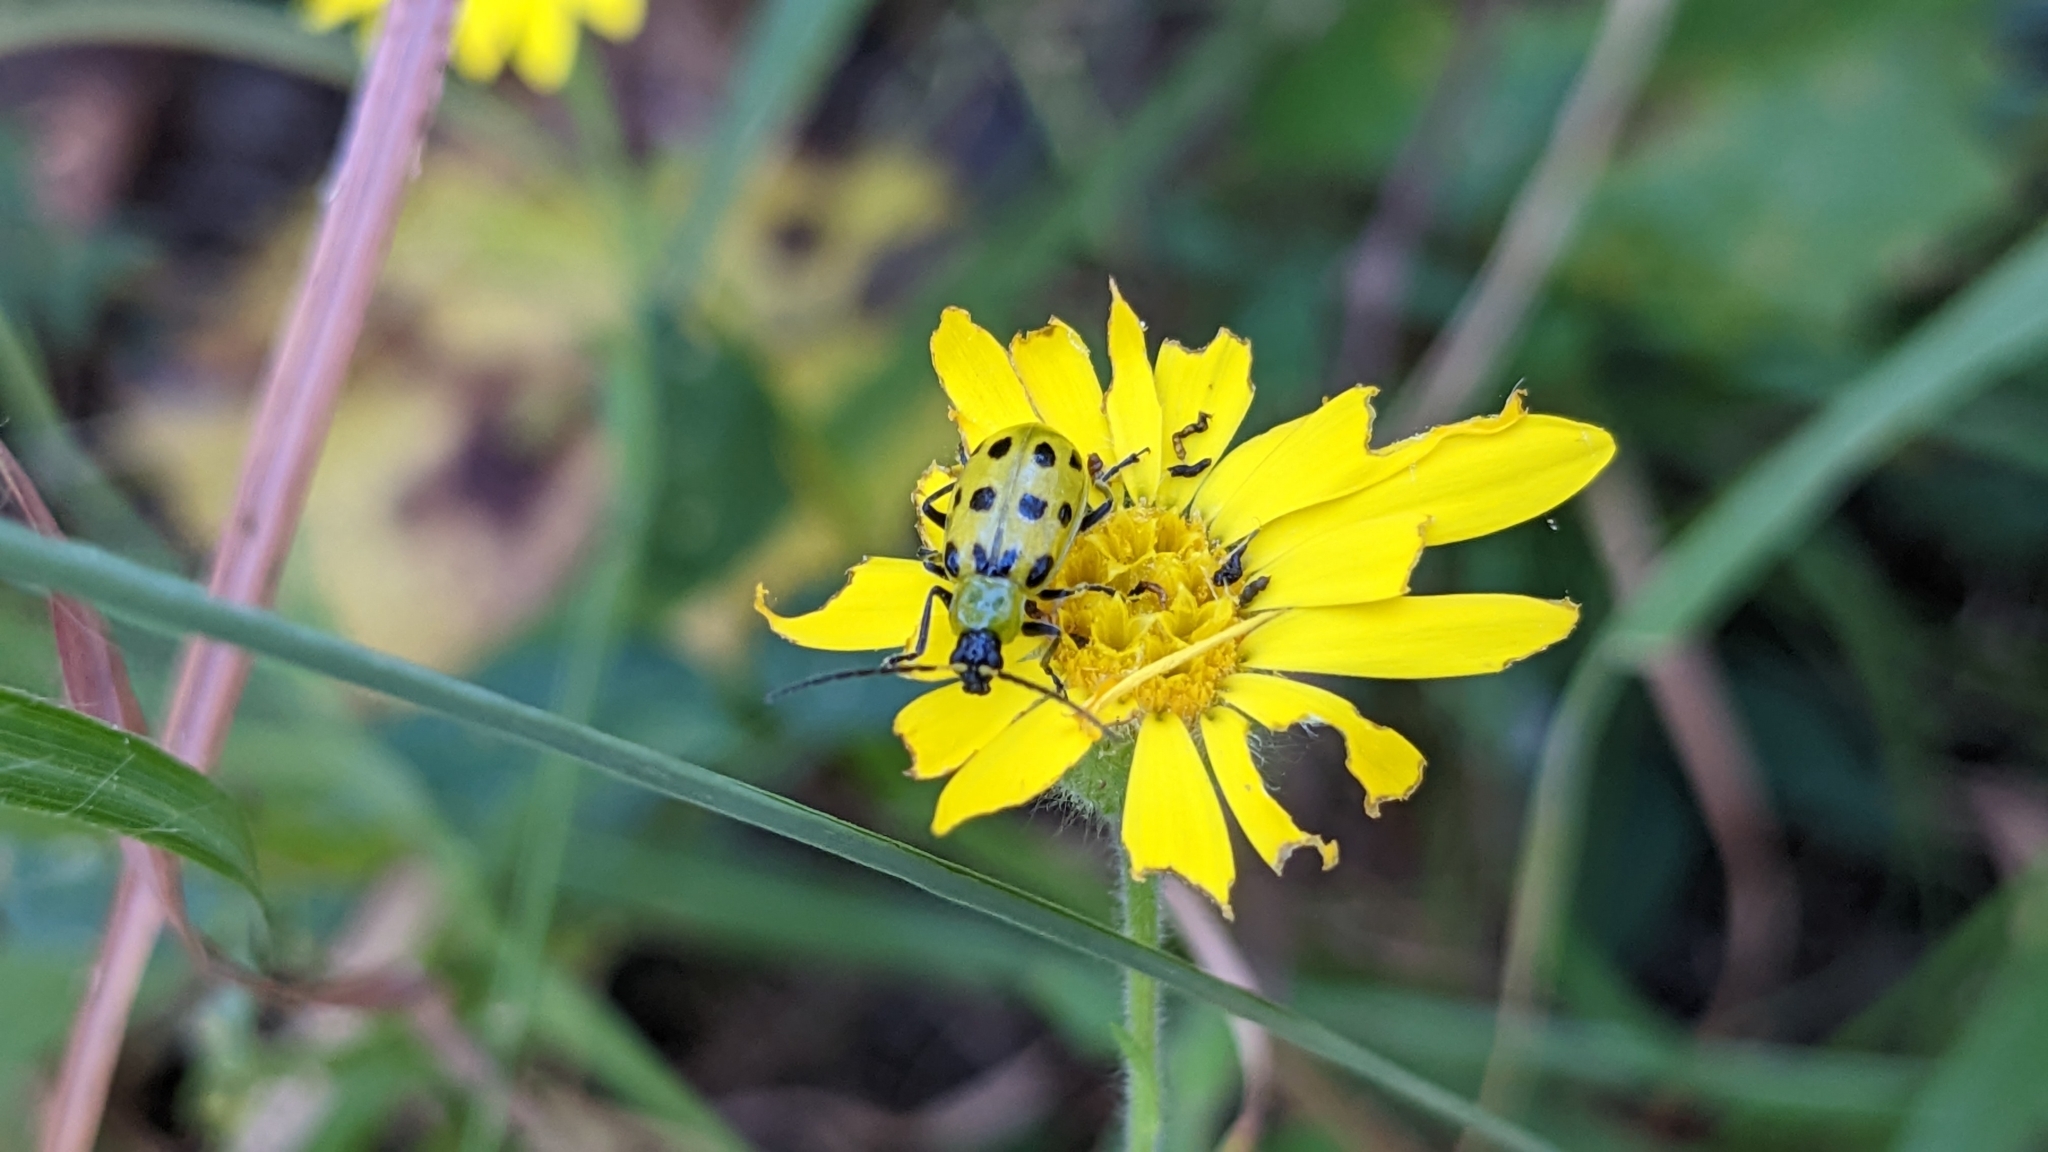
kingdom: Animalia
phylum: Arthropoda
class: Insecta
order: Coleoptera
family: Chrysomelidae
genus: Diabrotica
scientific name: Diabrotica undecimpunctata
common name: Spotted cucumber beetle
